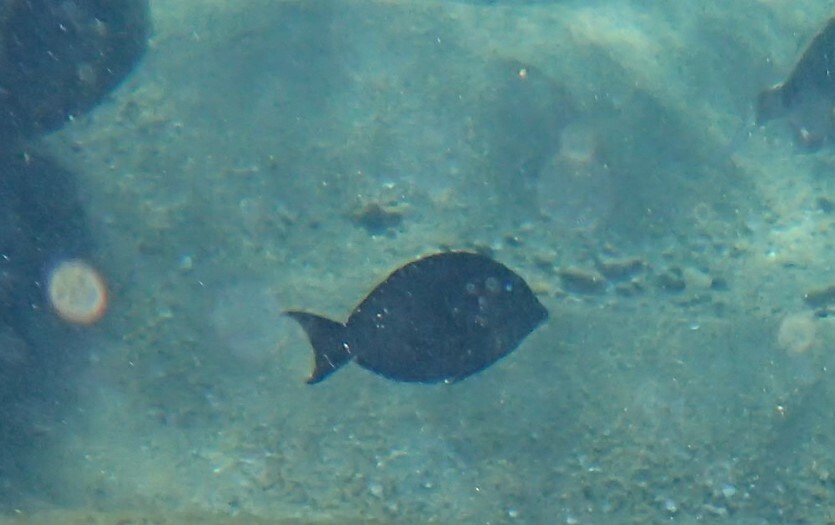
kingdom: Animalia
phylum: Chordata
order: Perciformes
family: Acanthuridae
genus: Acanthurus
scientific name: Acanthurus nigrofuscus
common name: Blackspot surgeonfish
